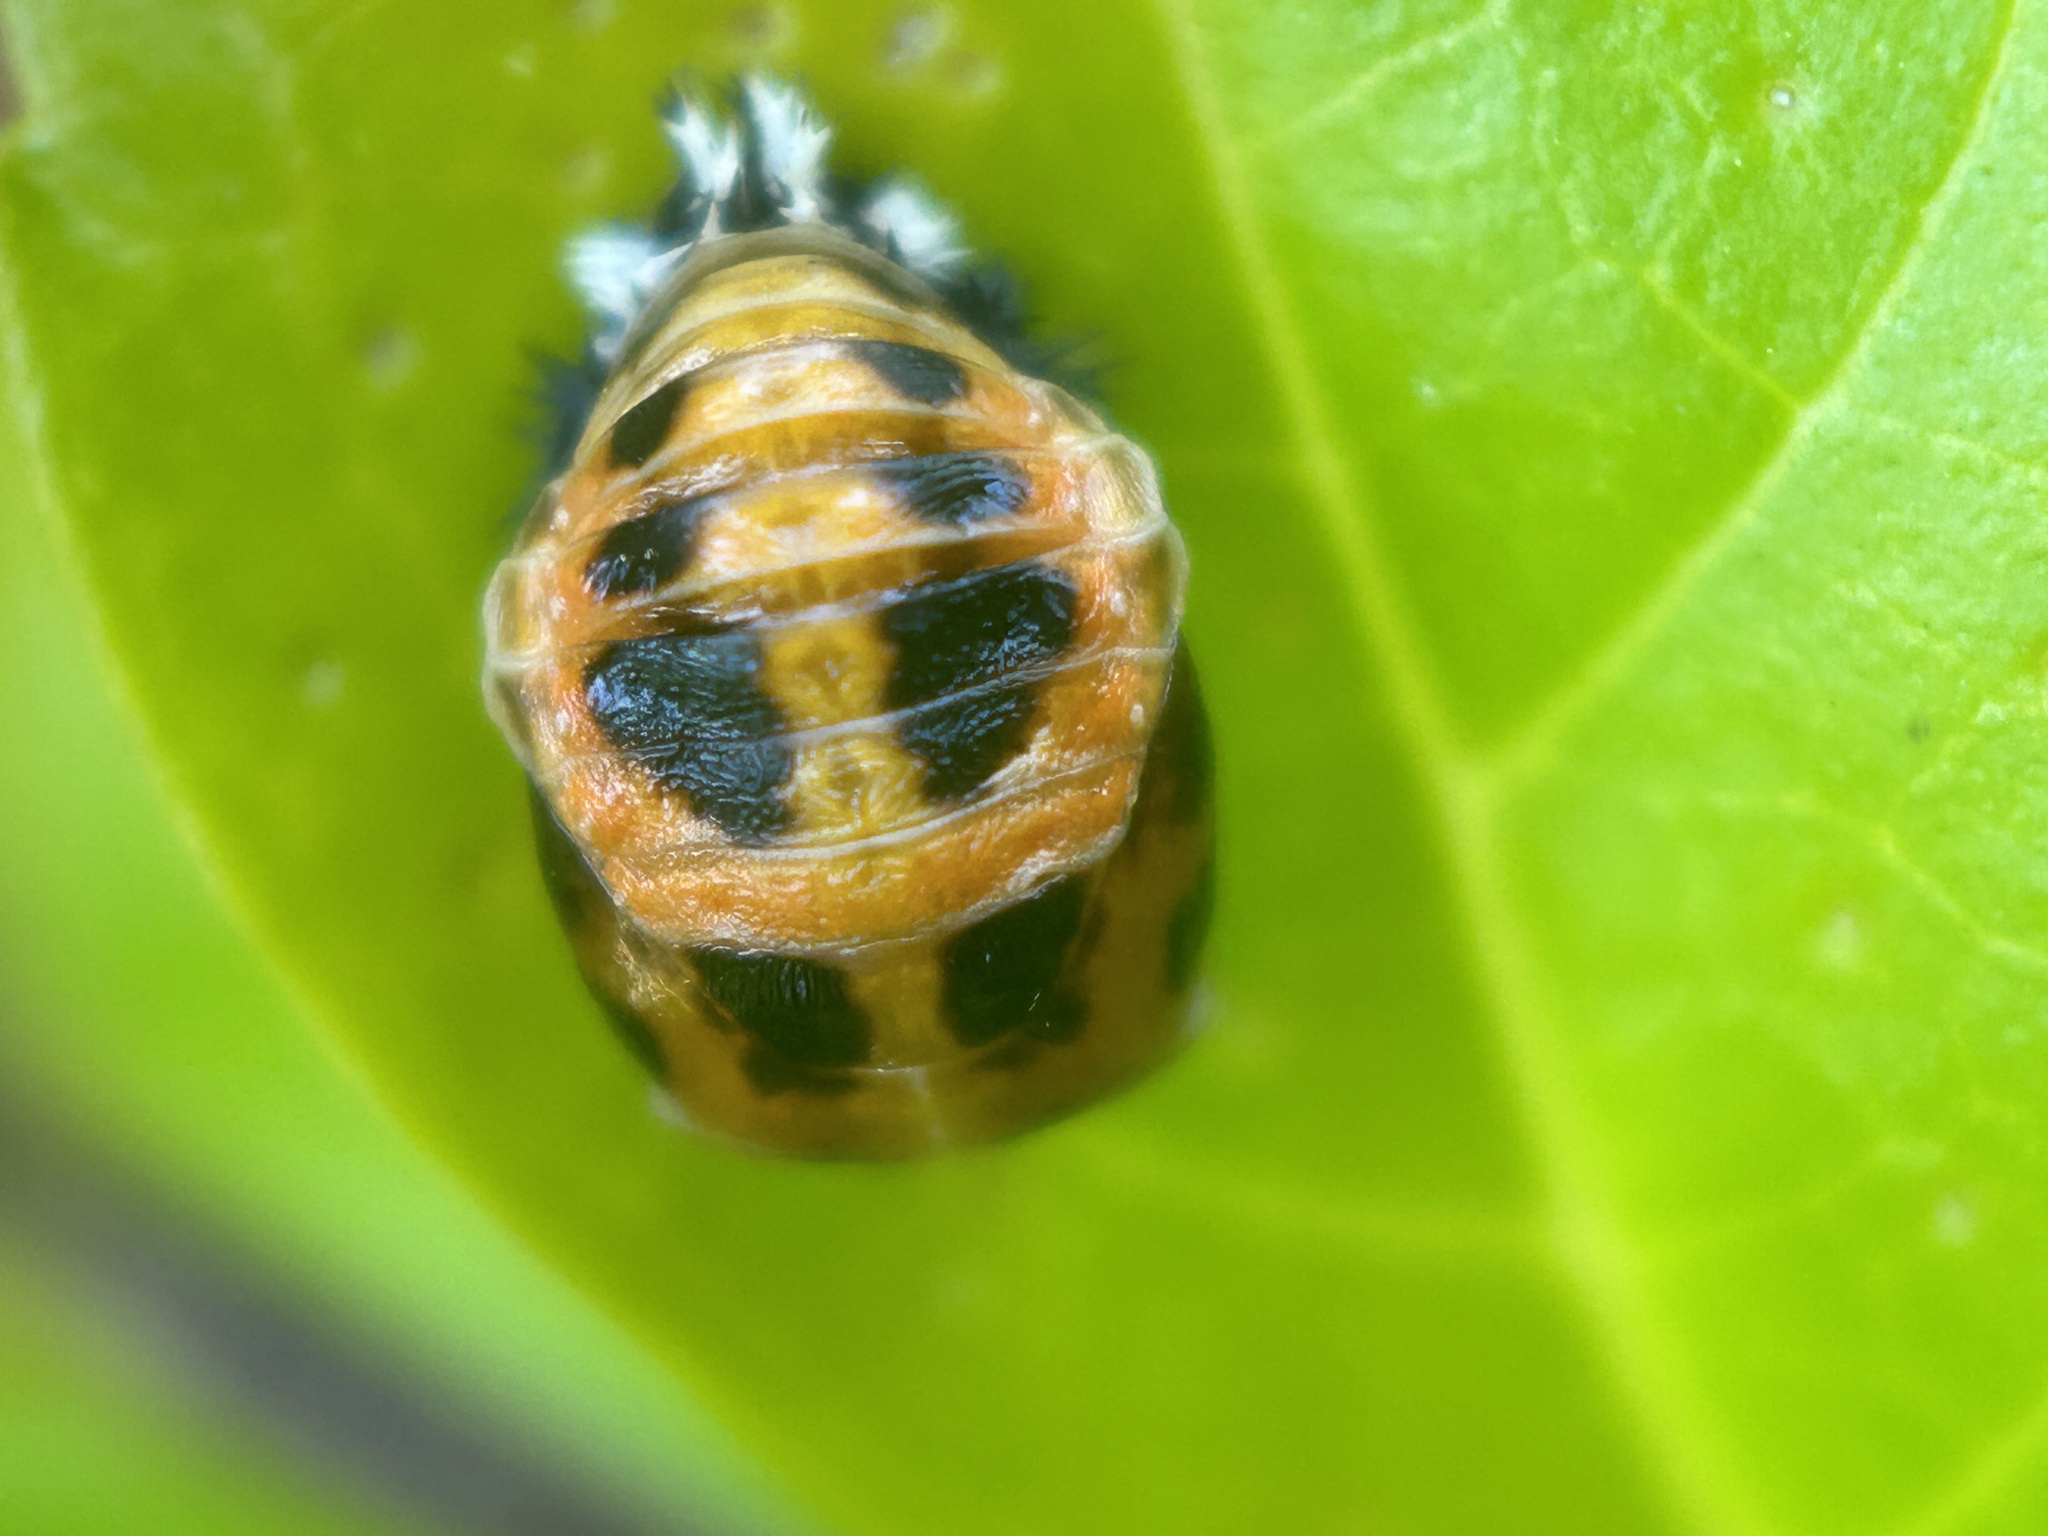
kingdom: Animalia
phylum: Arthropoda
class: Insecta
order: Coleoptera
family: Coccinellidae
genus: Harmonia
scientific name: Harmonia axyridis
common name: Harlequin ladybird
